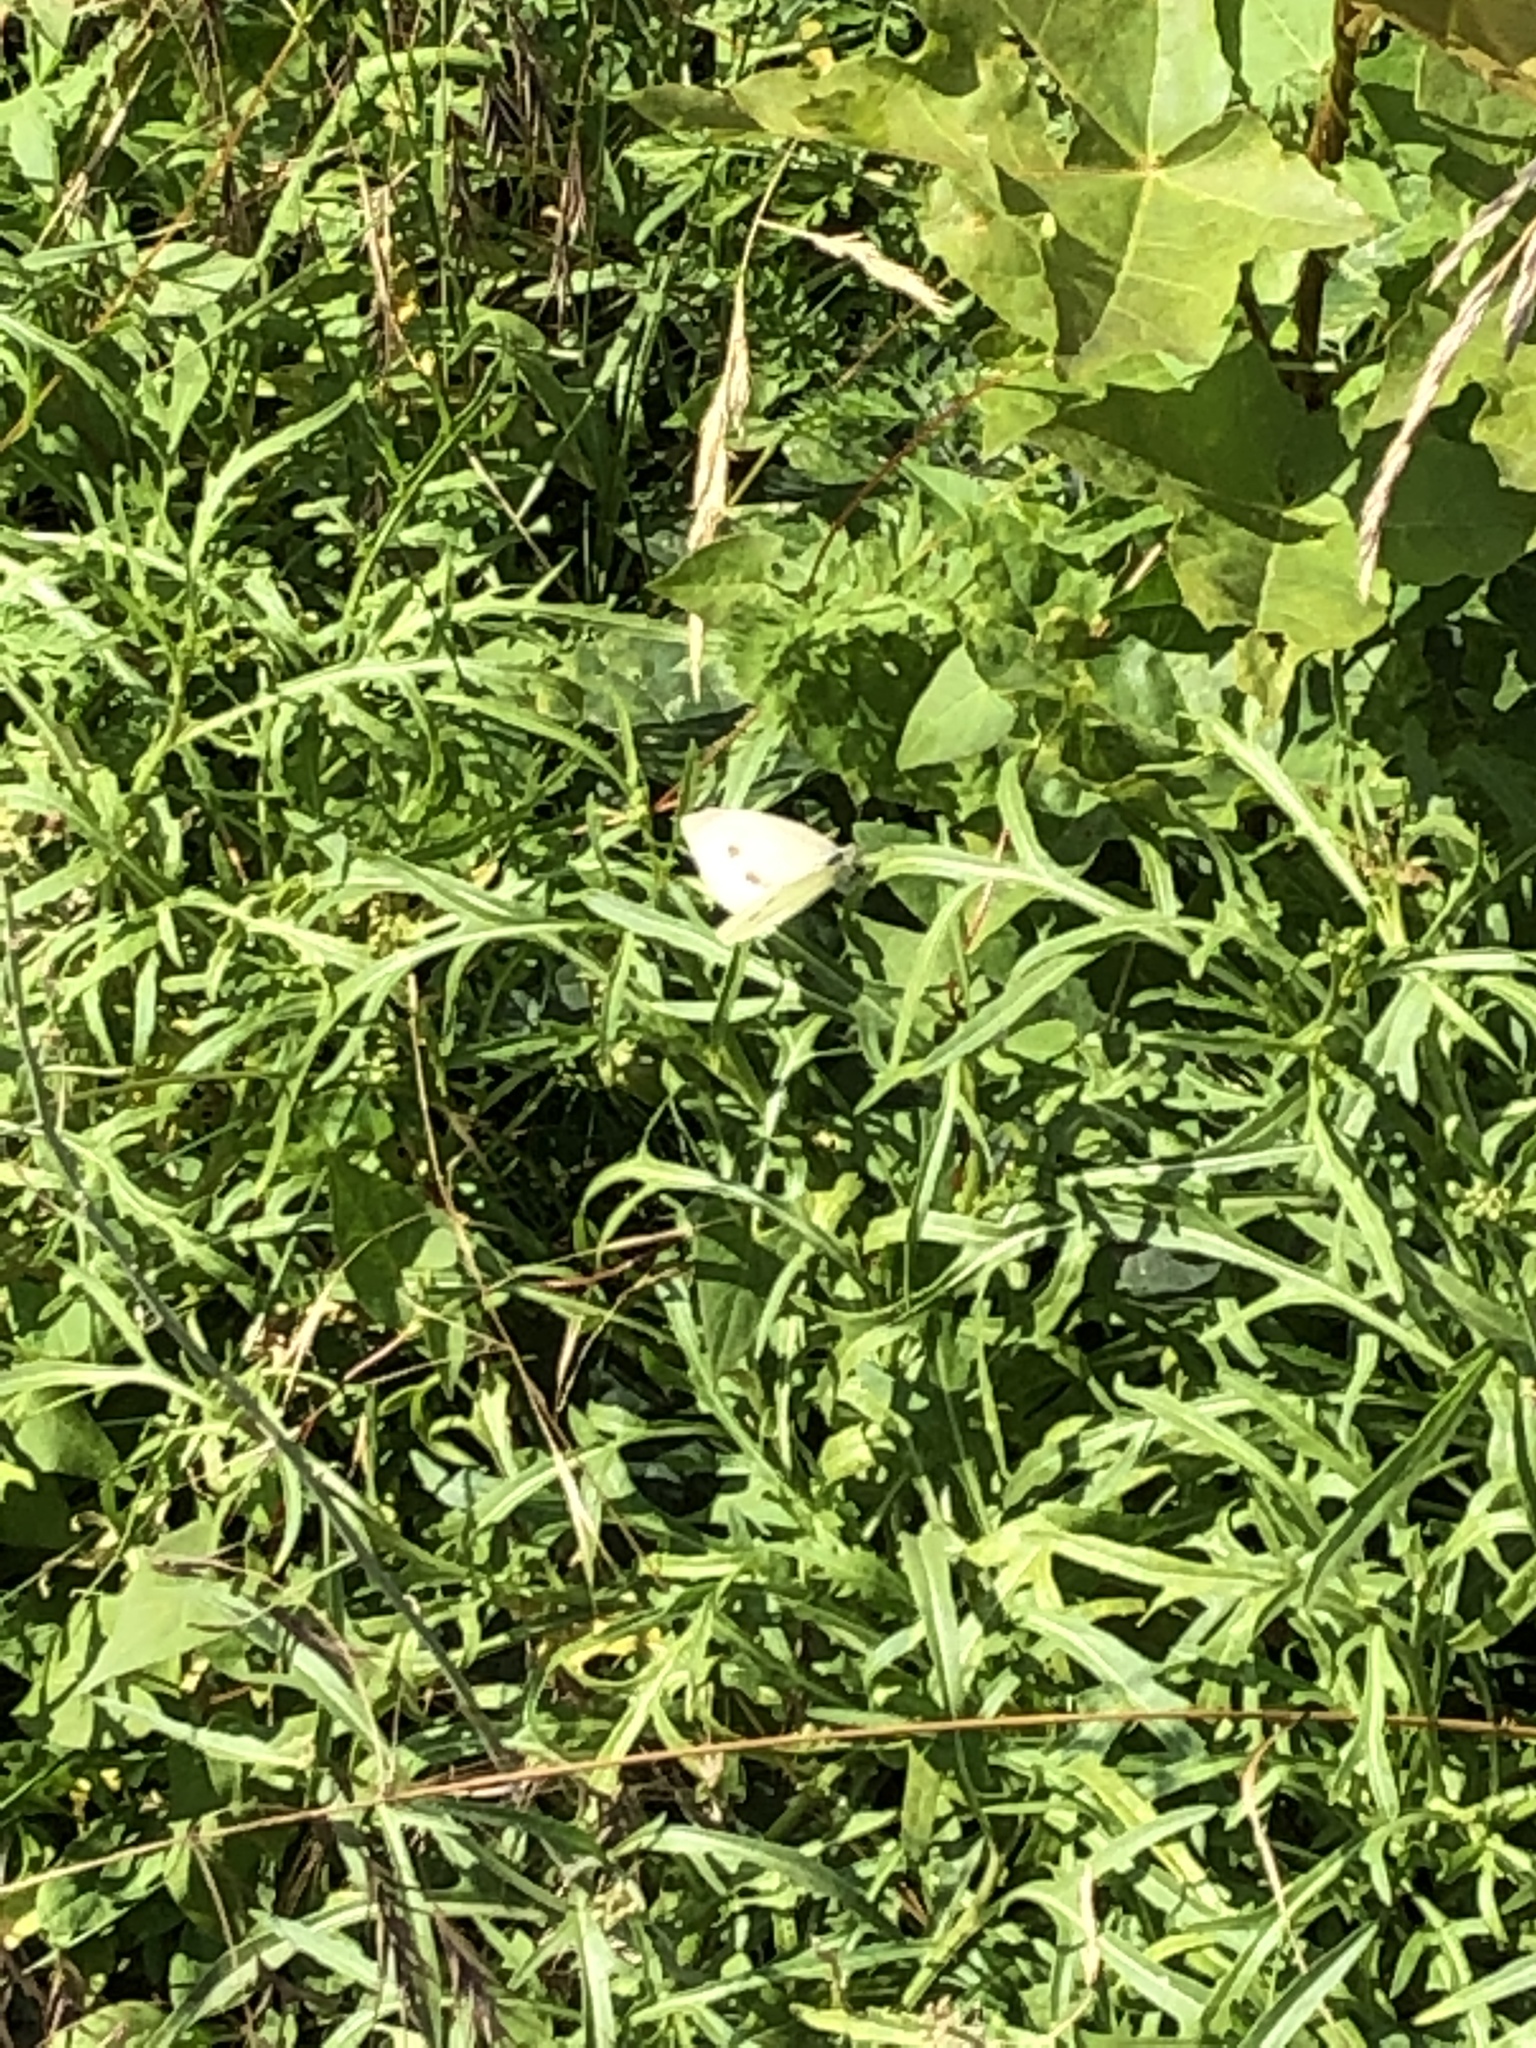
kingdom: Animalia
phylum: Arthropoda
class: Insecta
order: Lepidoptera
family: Pieridae
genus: Pieris
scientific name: Pieris rapae
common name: Small white
